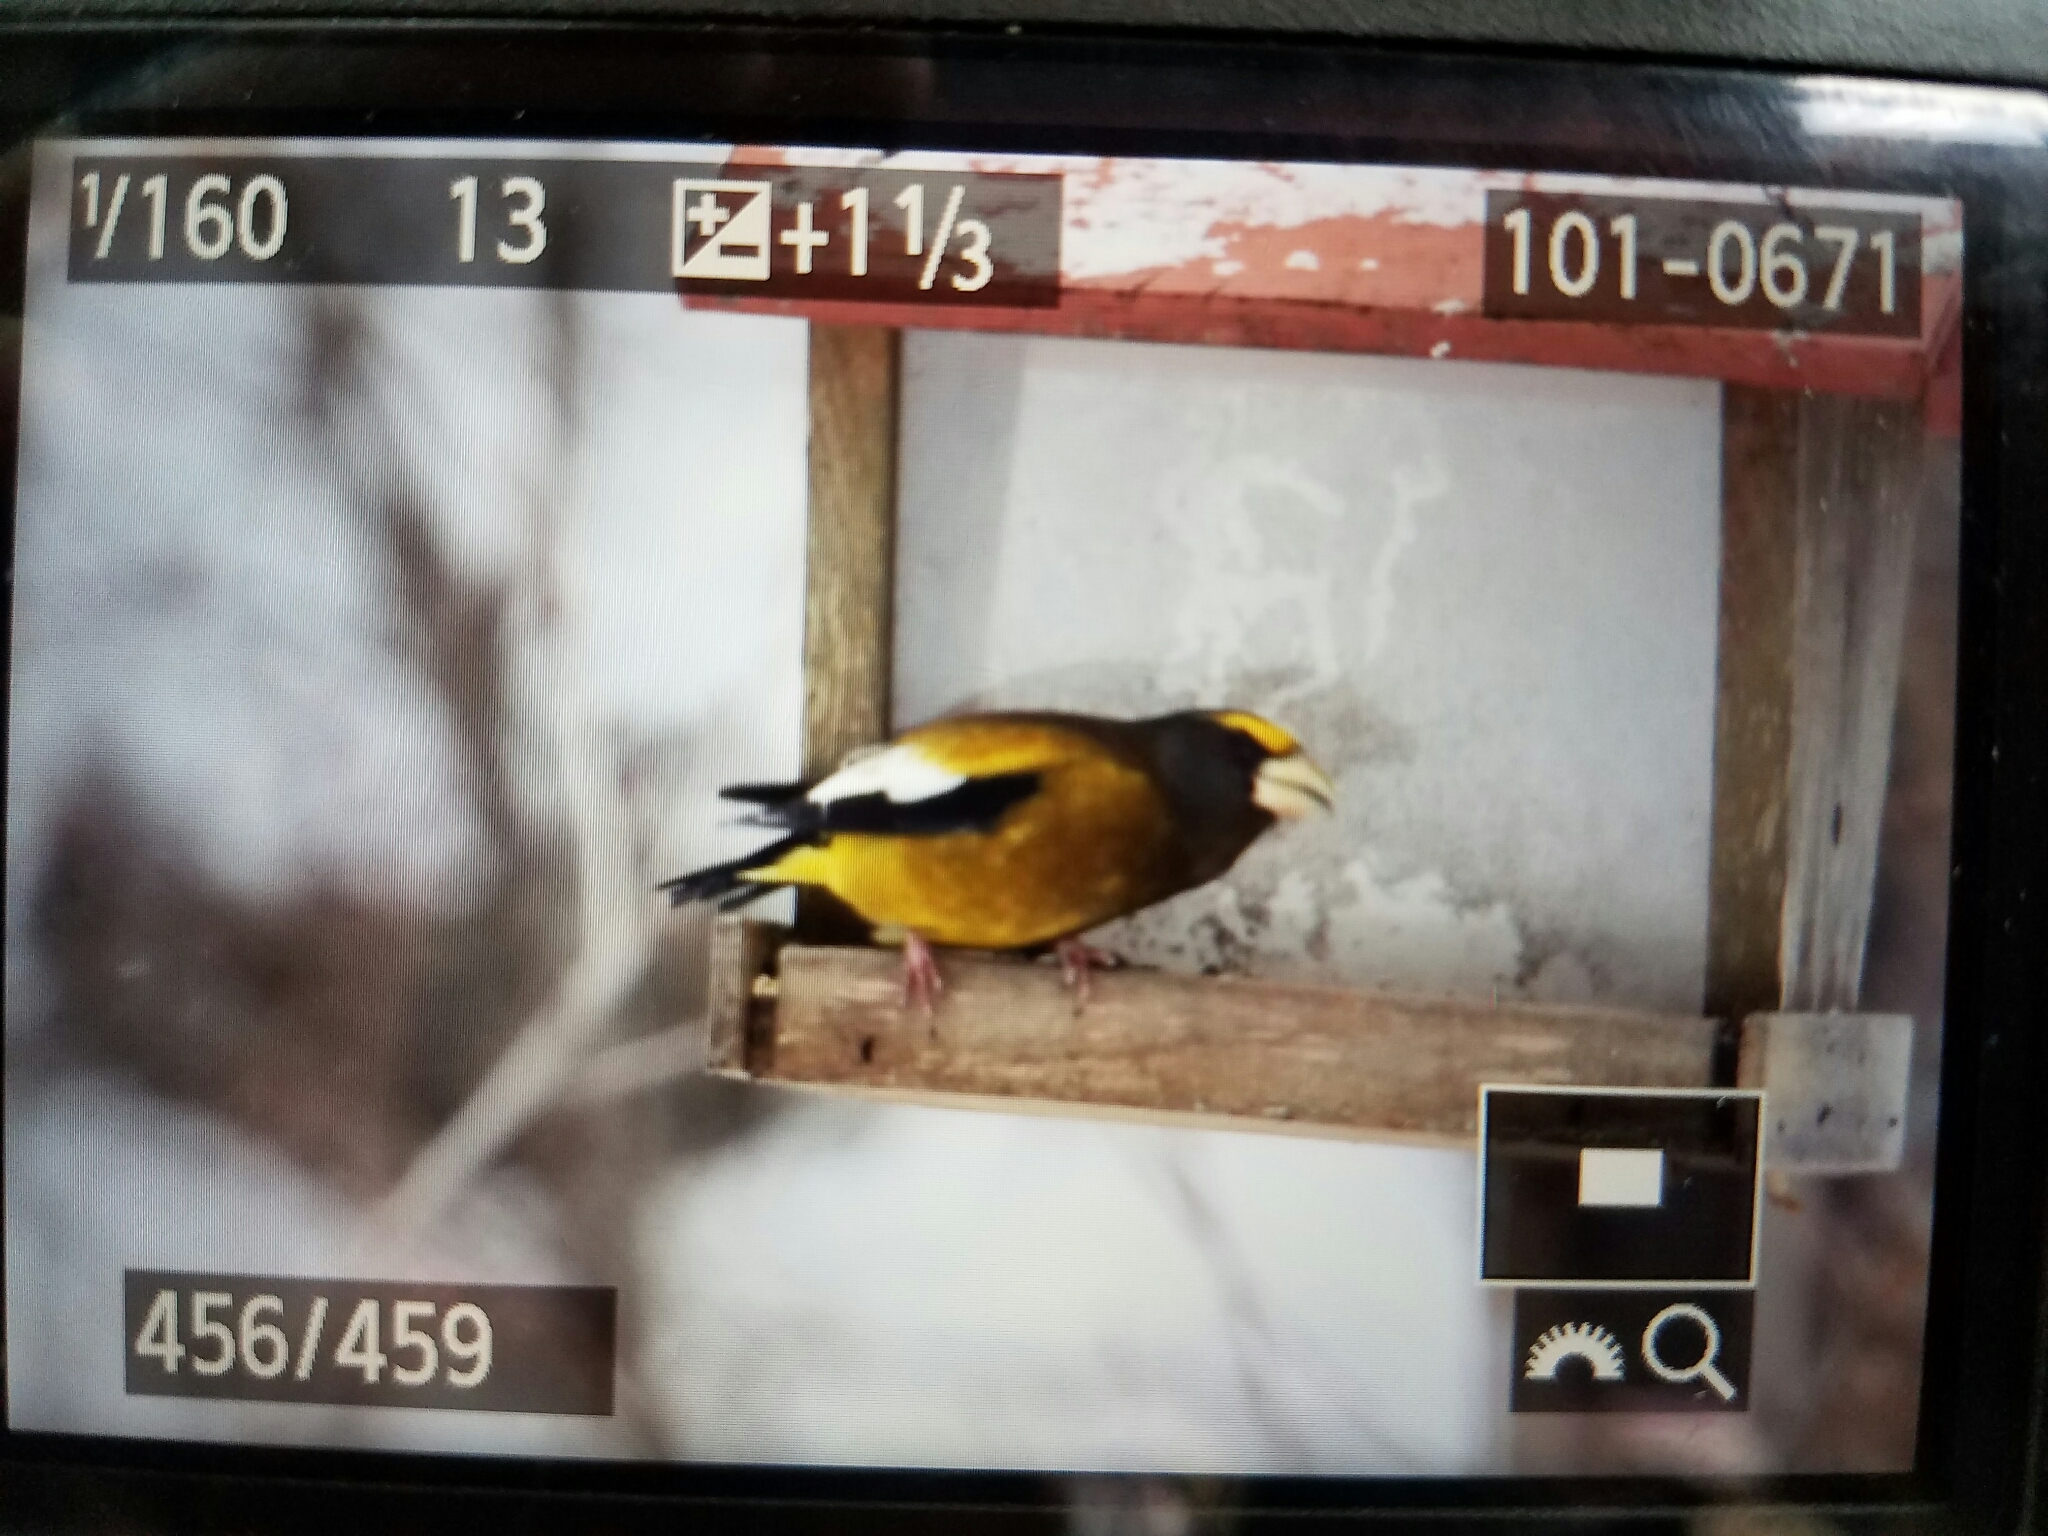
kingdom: Animalia
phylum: Chordata
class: Aves
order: Passeriformes
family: Fringillidae
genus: Hesperiphona
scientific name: Hesperiphona vespertina
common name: Evening grosbeak
